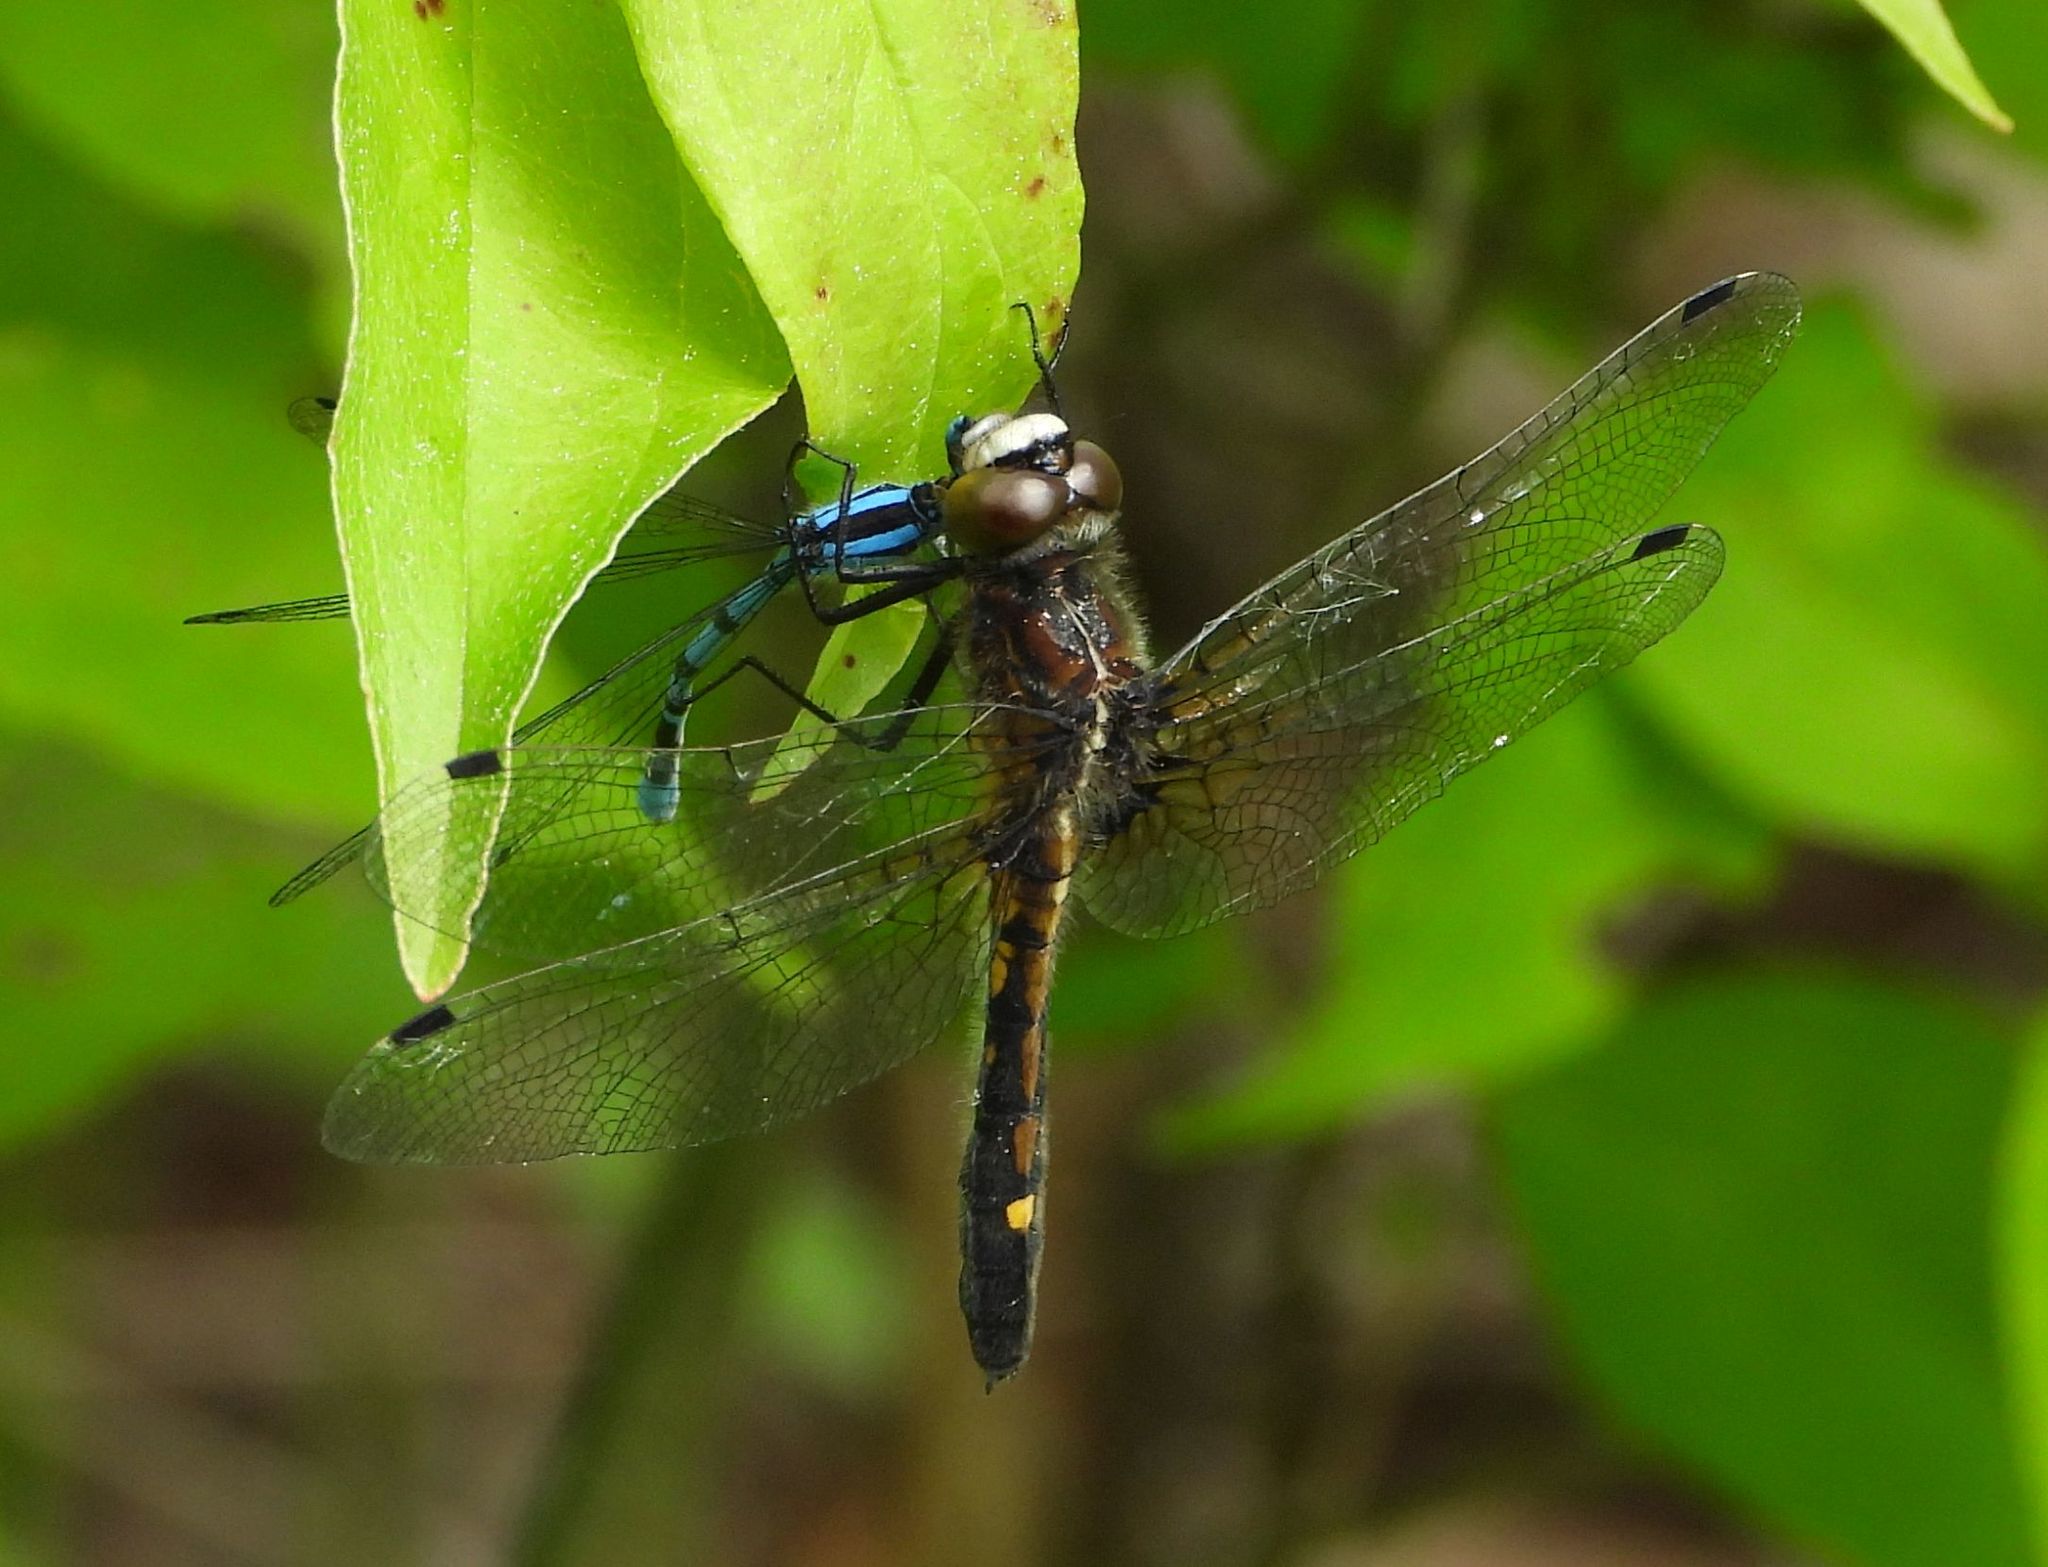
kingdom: Animalia
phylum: Arthropoda
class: Insecta
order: Odonata
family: Libellulidae
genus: Leucorrhinia
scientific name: Leucorrhinia intacta
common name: Dot-tailed whiteface
